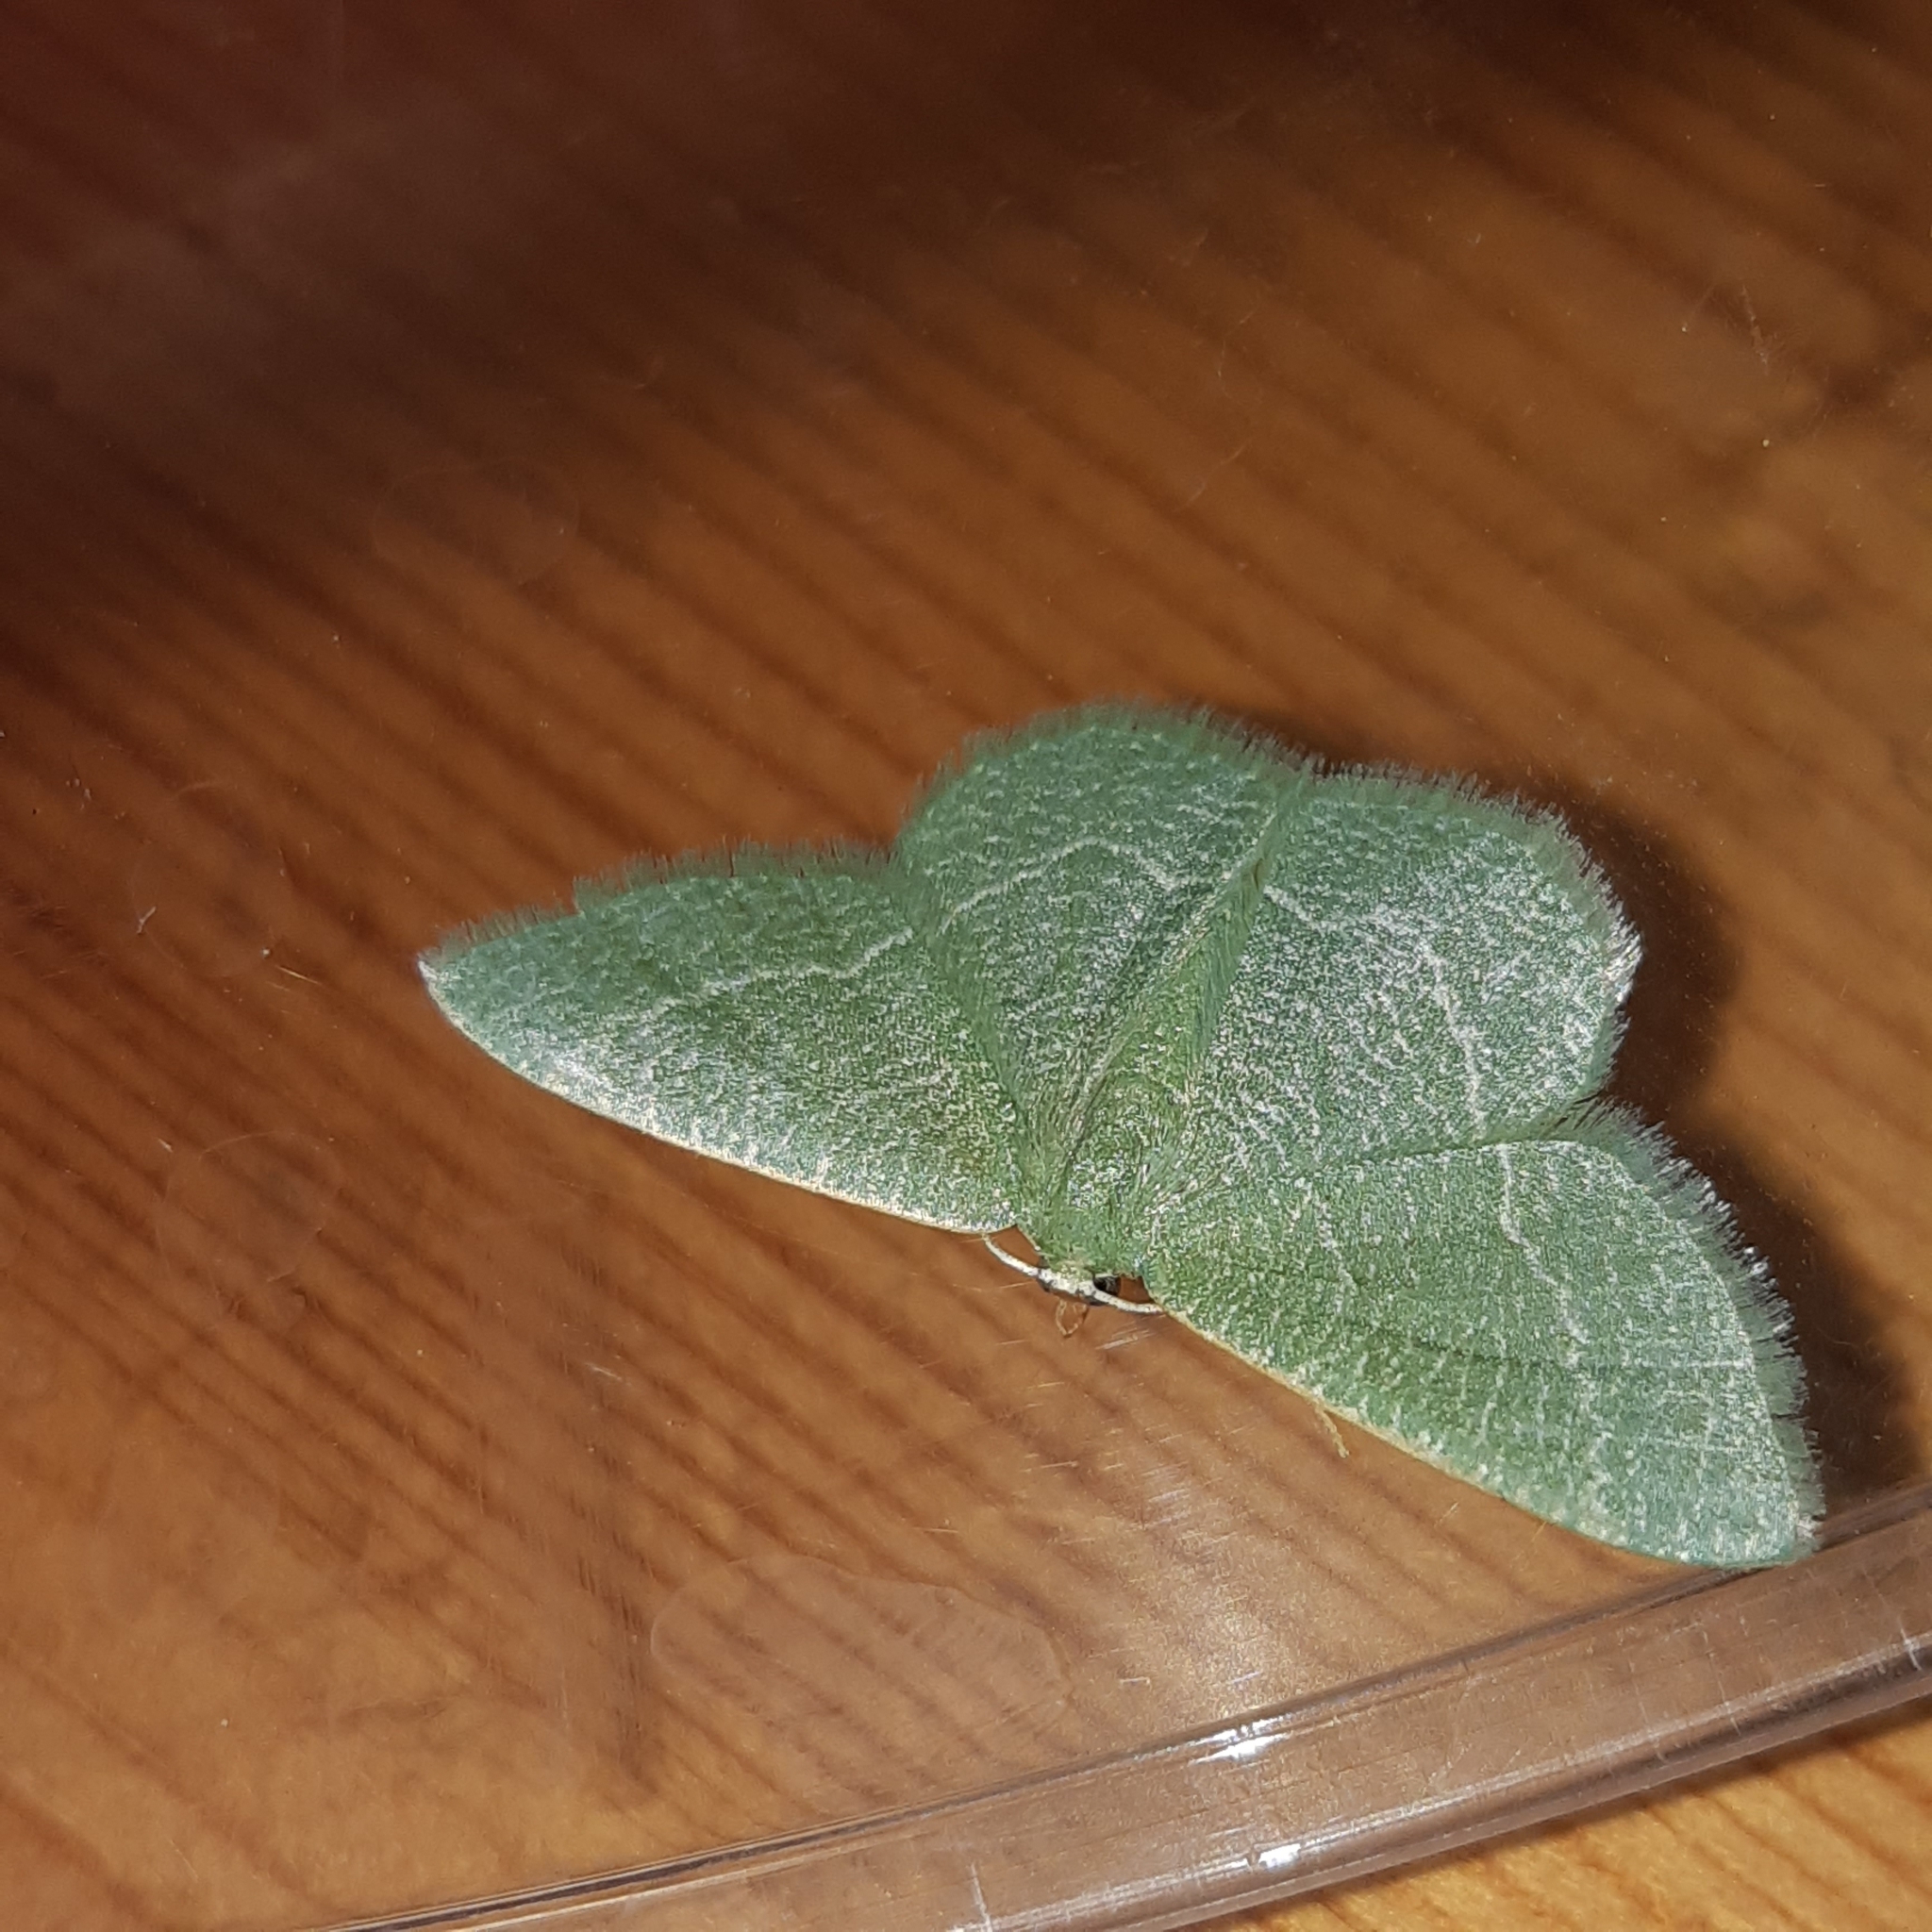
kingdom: Animalia
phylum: Arthropoda
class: Insecta
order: Lepidoptera
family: Geometridae
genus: Chlorissa
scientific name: Chlorissa etruscaria
